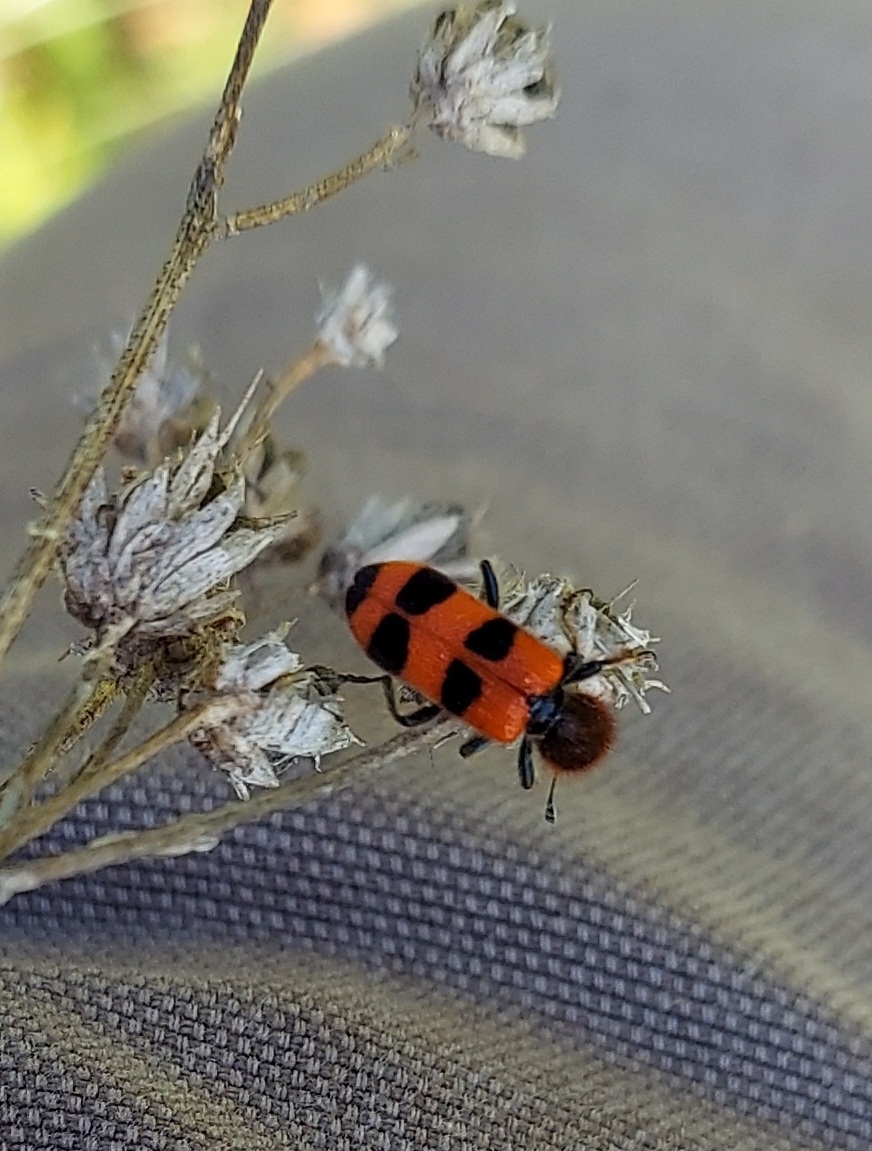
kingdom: Animalia
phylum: Arthropoda
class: Insecta
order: Coleoptera
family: Cleridae
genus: Trichodes
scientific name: Trichodes apivorus
